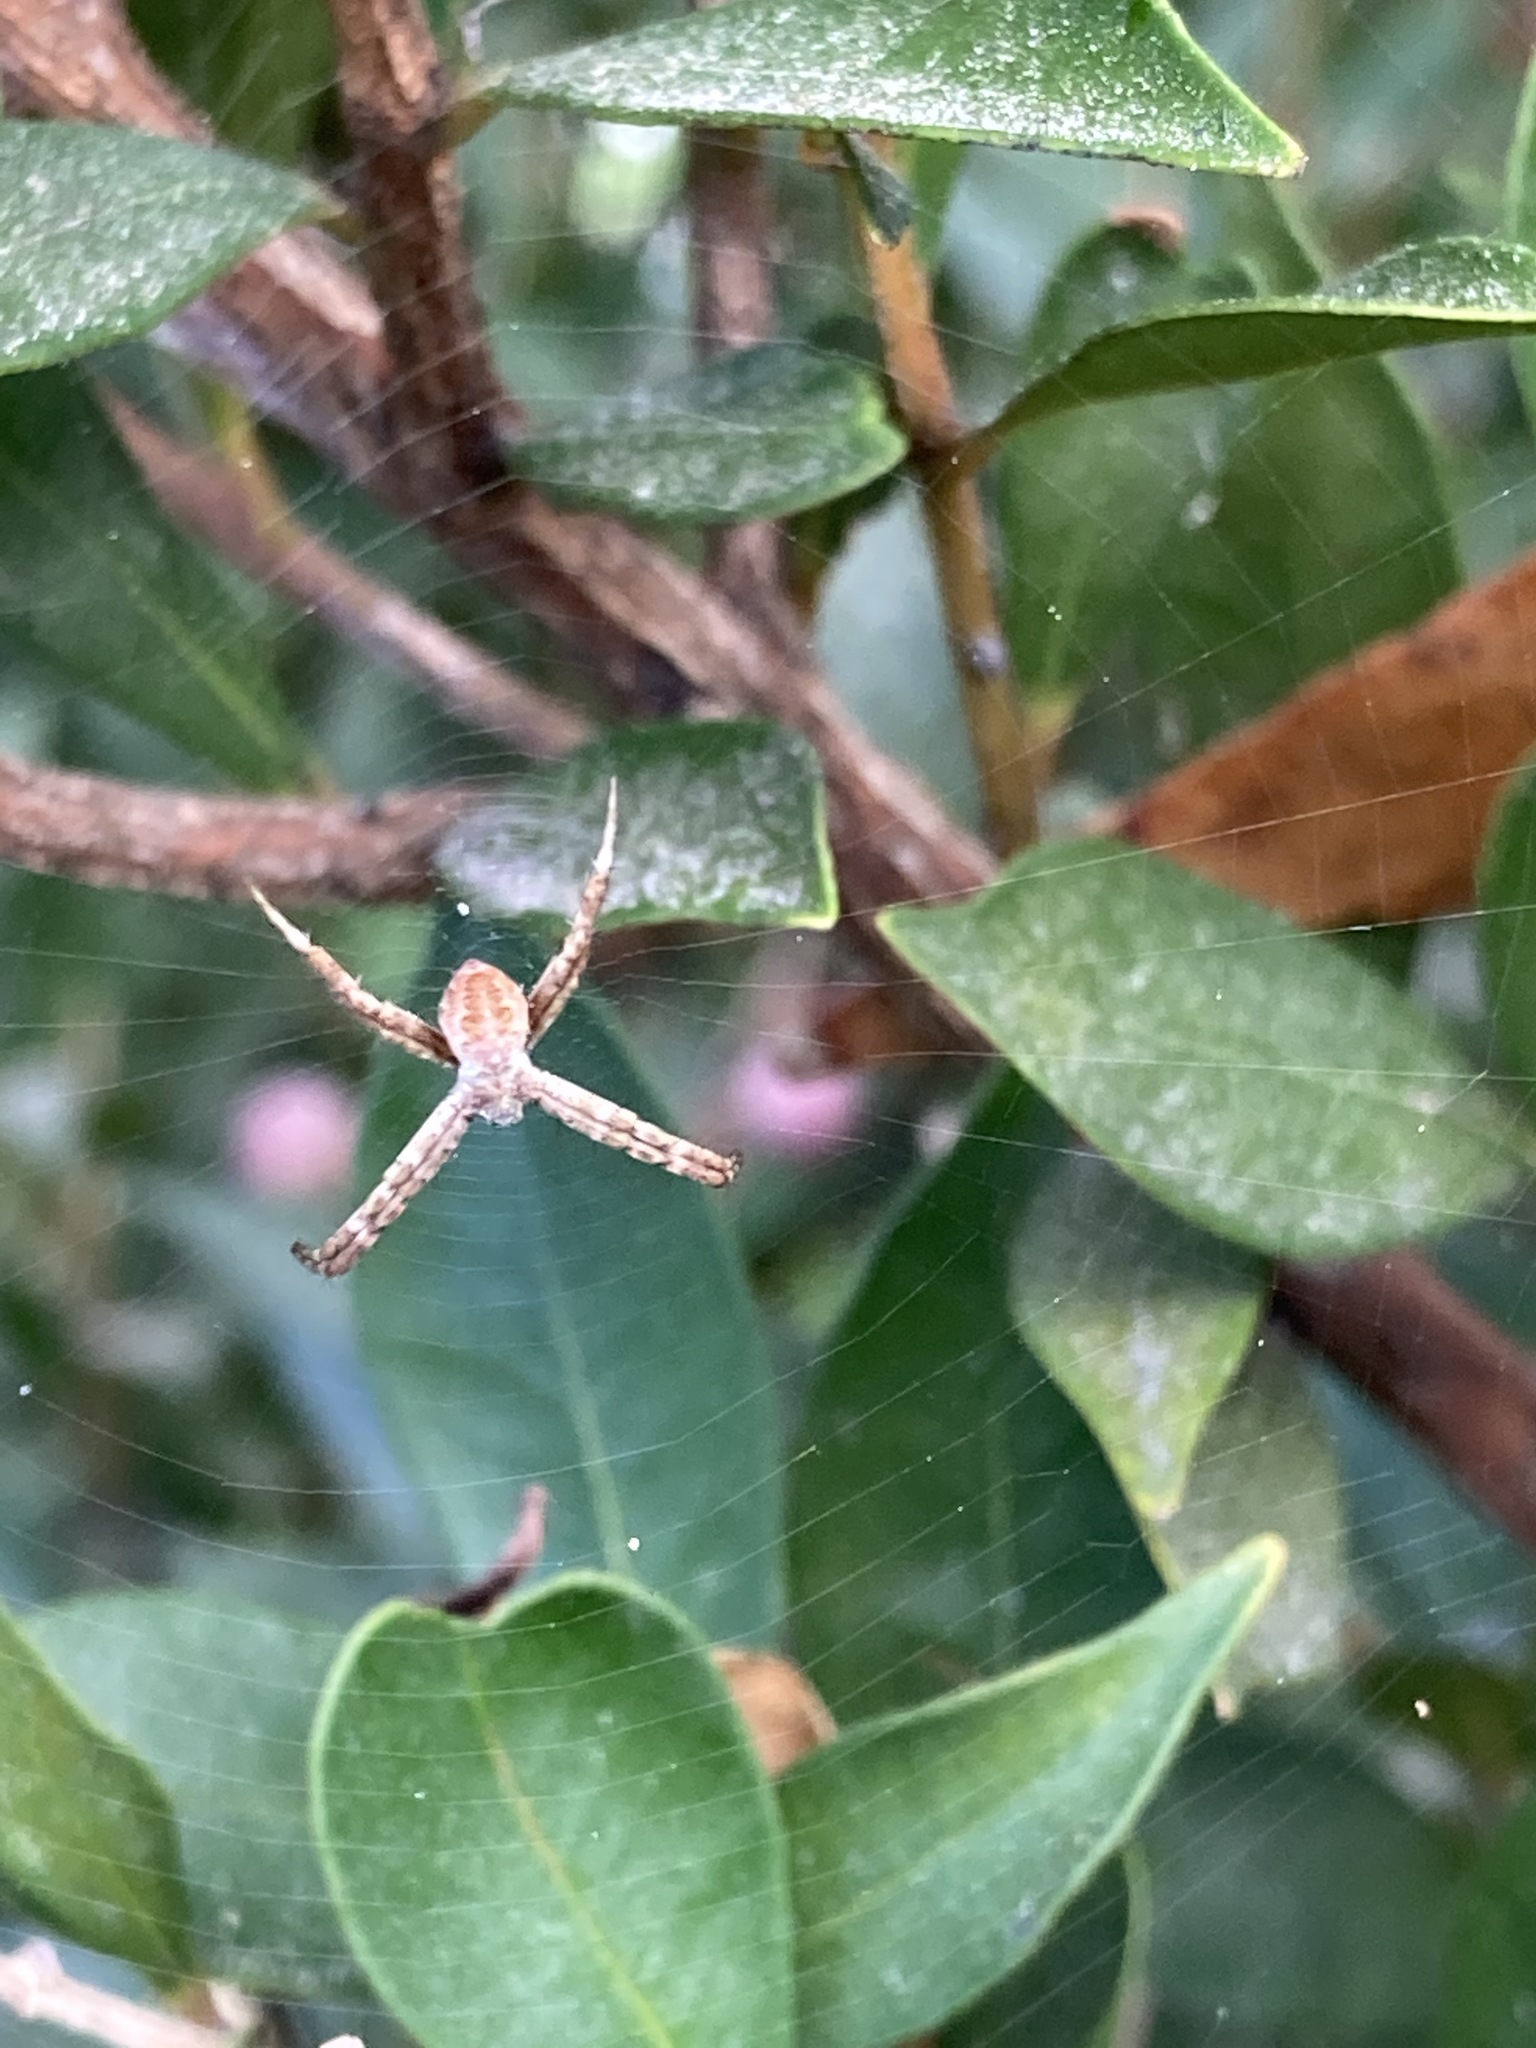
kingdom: Animalia
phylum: Arthropoda
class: Arachnida
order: Araneae
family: Araneidae
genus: Argiope
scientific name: Argiope keyserlingi
